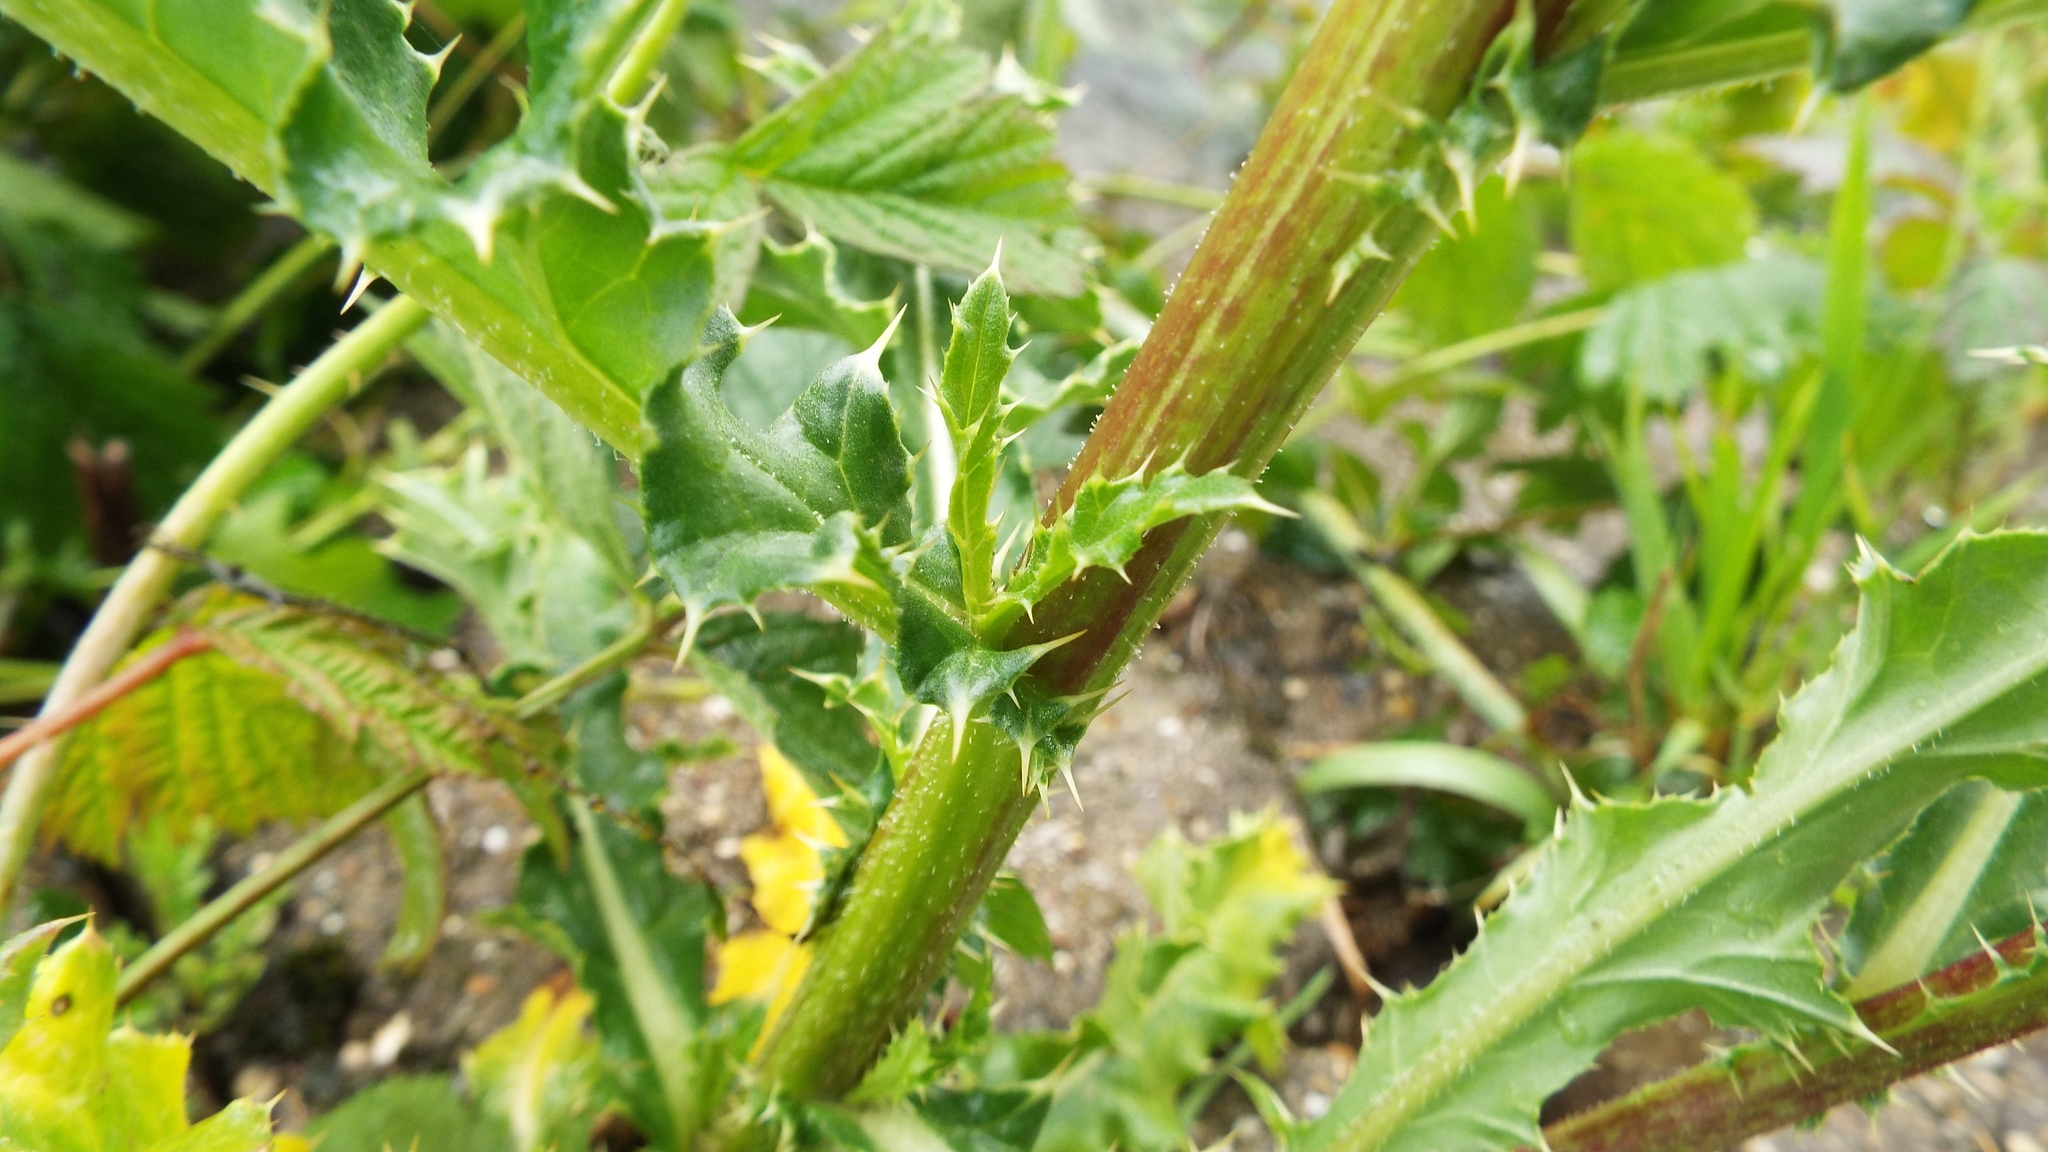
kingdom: Plantae
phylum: Tracheophyta
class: Magnoliopsida
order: Asterales
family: Asteraceae
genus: Cirsium
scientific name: Cirsium arvense
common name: Creeping thistle
